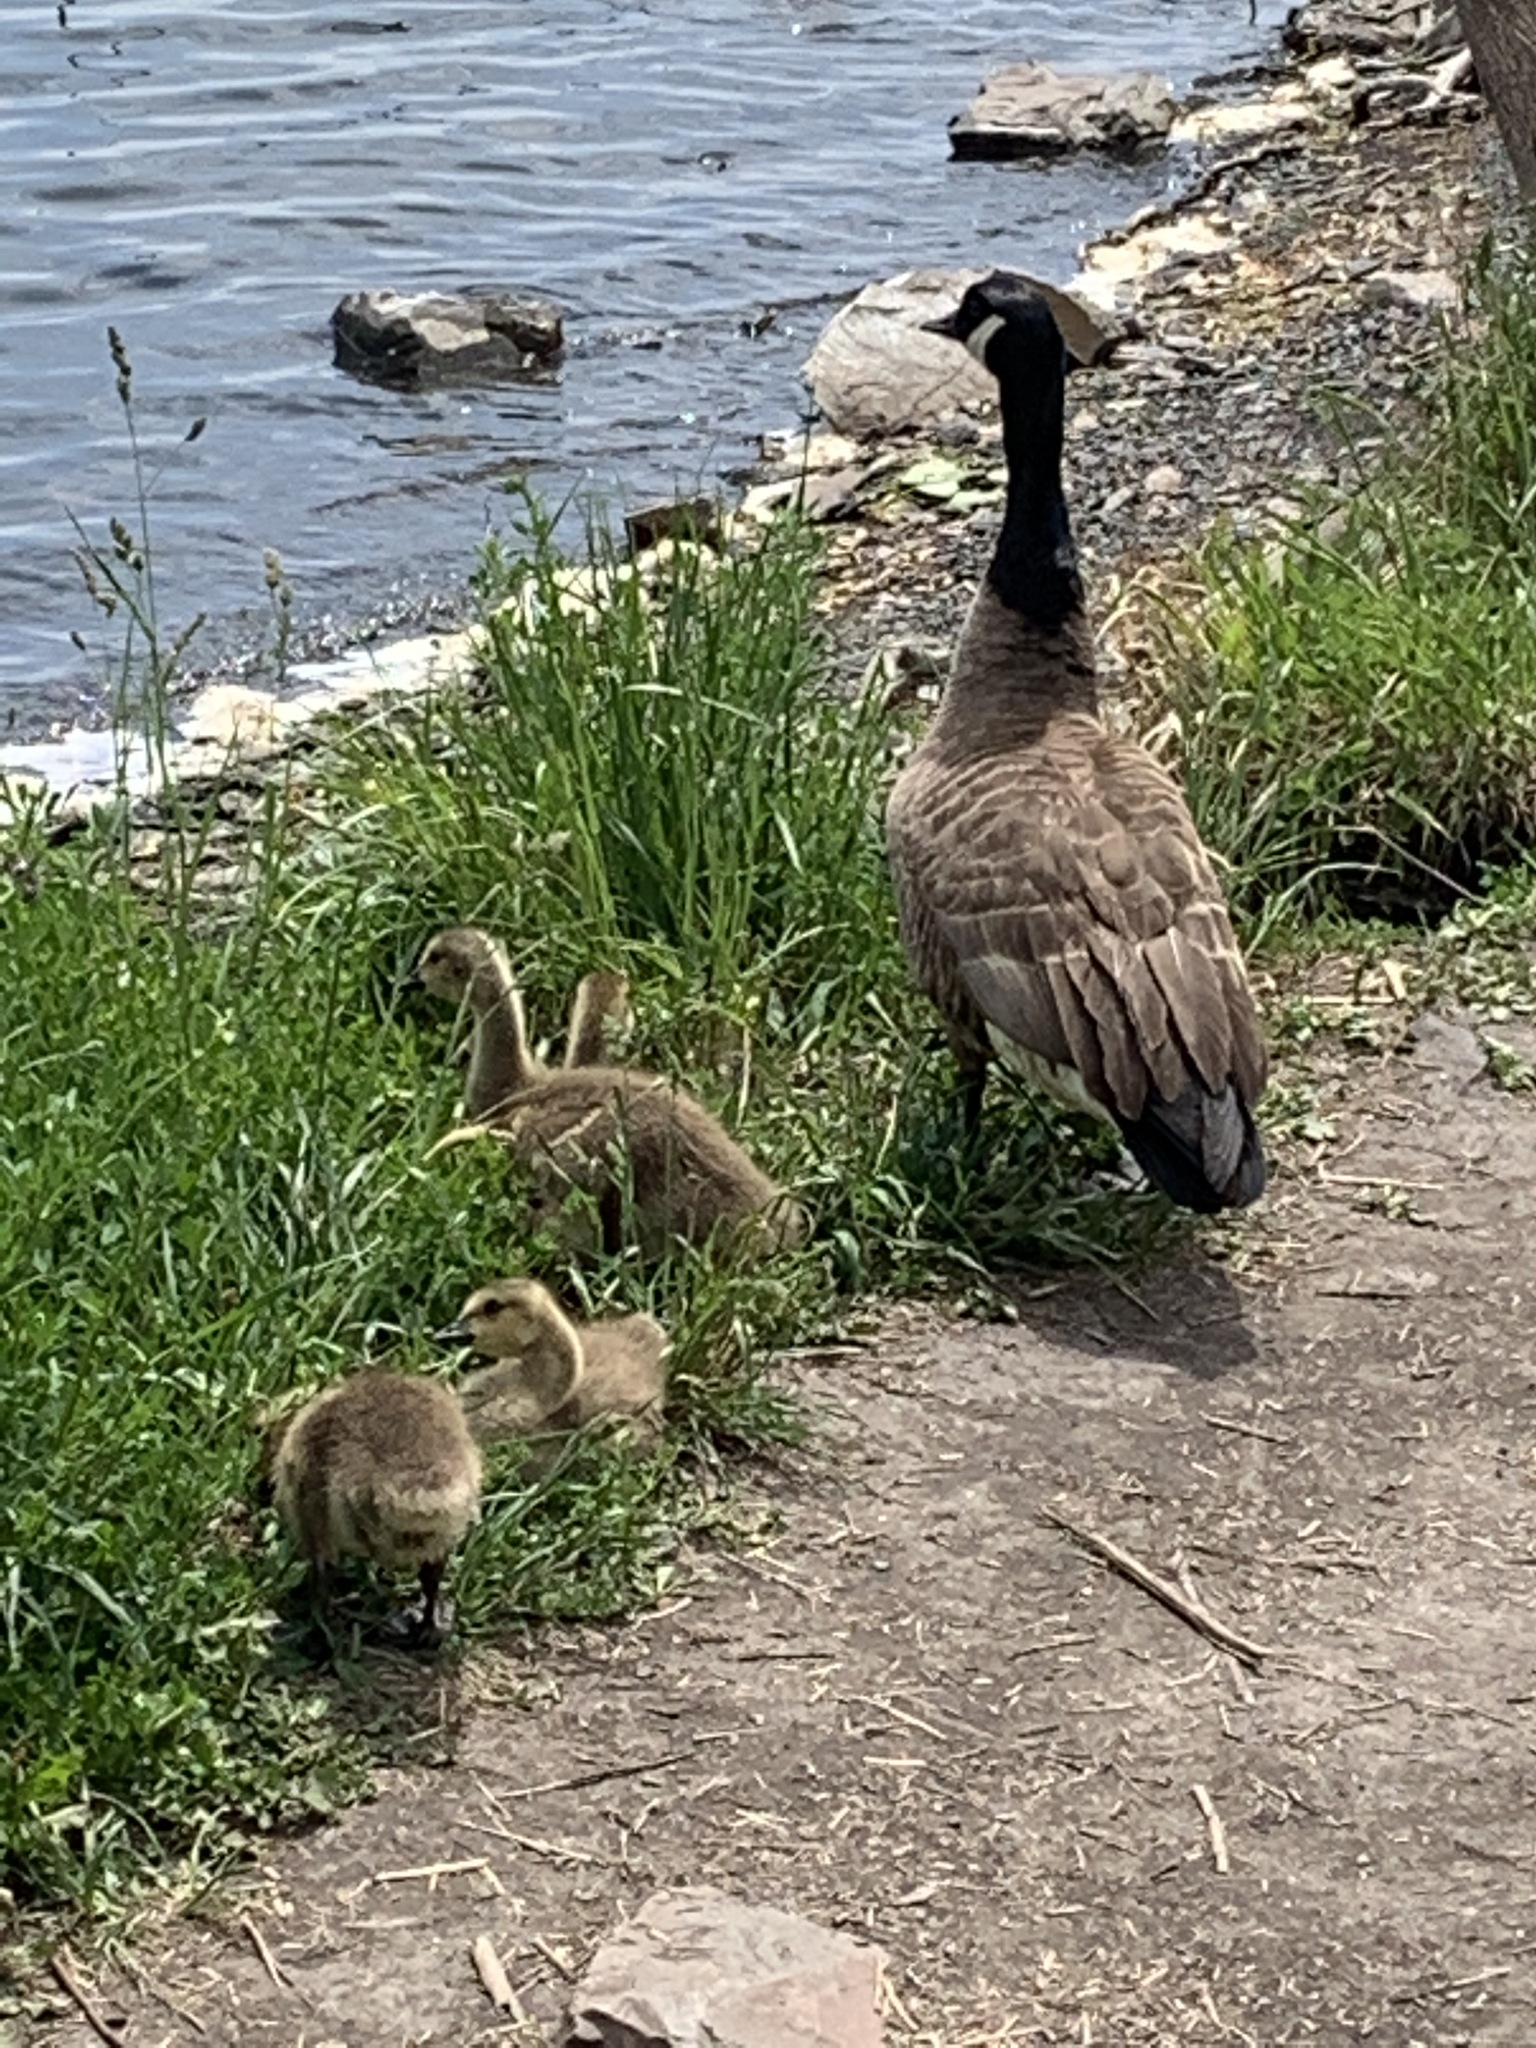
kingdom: Animalia
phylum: Chordata
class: Aves
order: Anseriformes
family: Anatidae
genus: Branta
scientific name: Branta canadensis
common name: Canada goose
